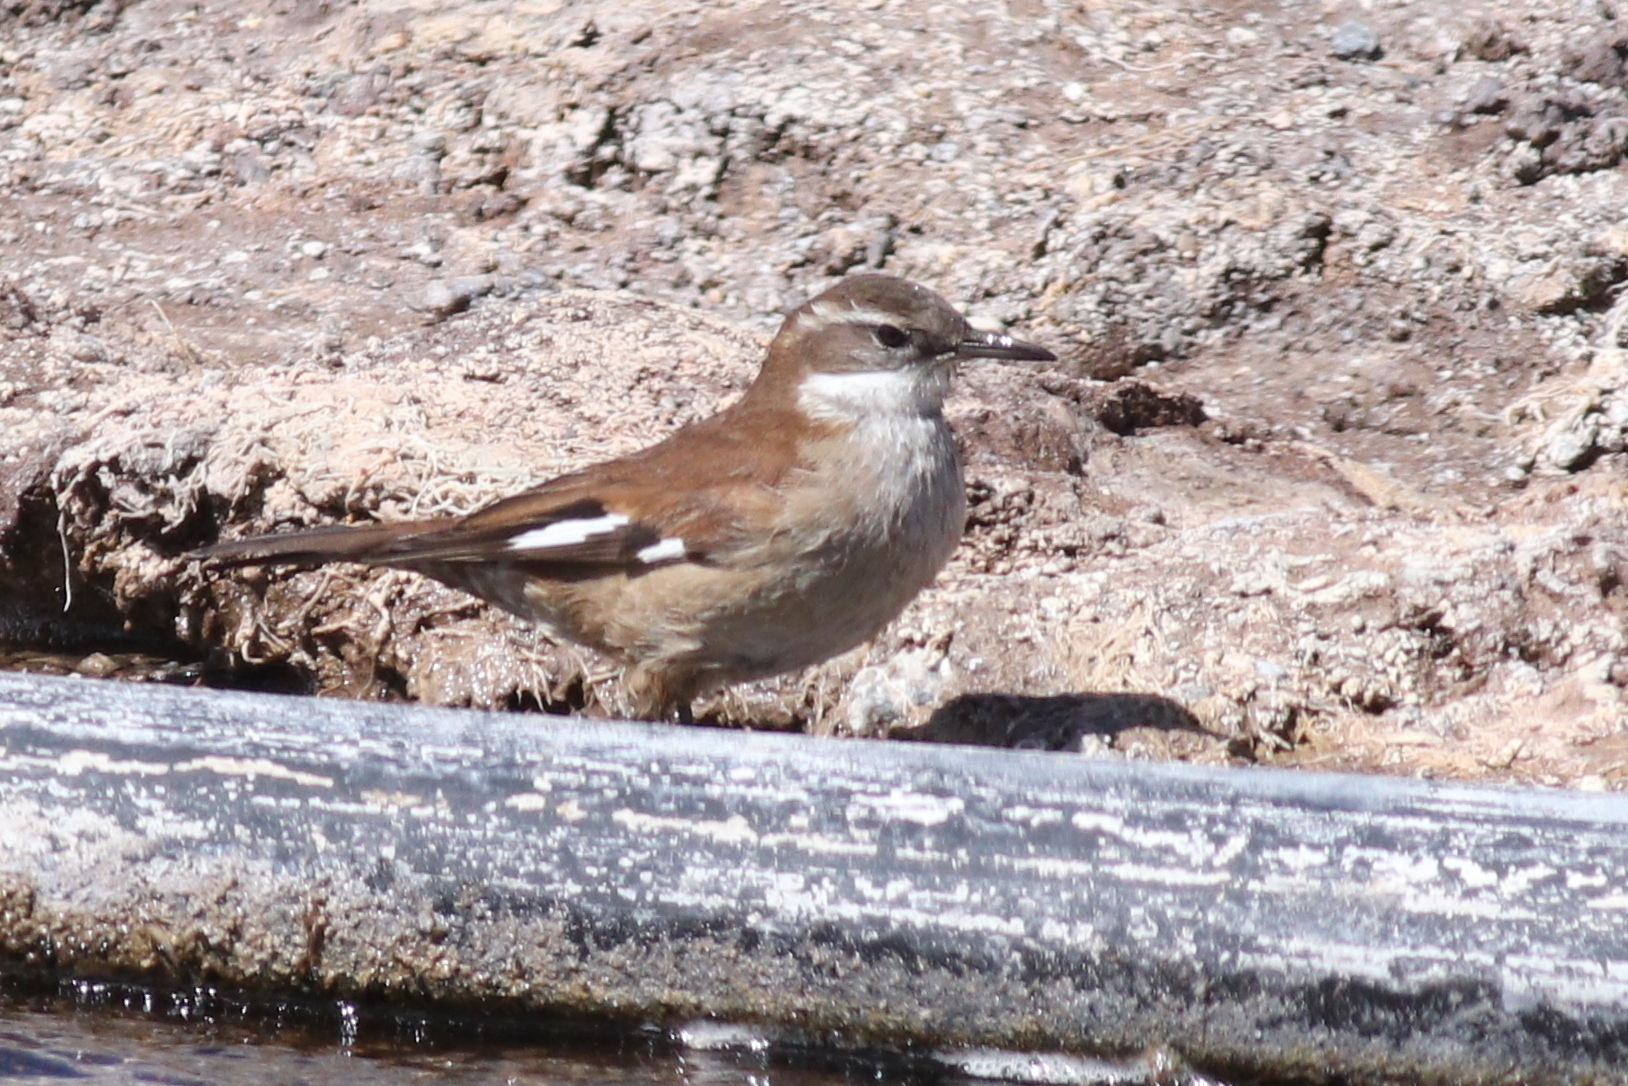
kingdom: Animalia
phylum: Chordata
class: Aves
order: Passeriformes
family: Furnariidae
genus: Cinclodes
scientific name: Cinclodes atacamensis
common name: White-winged cinclodes
